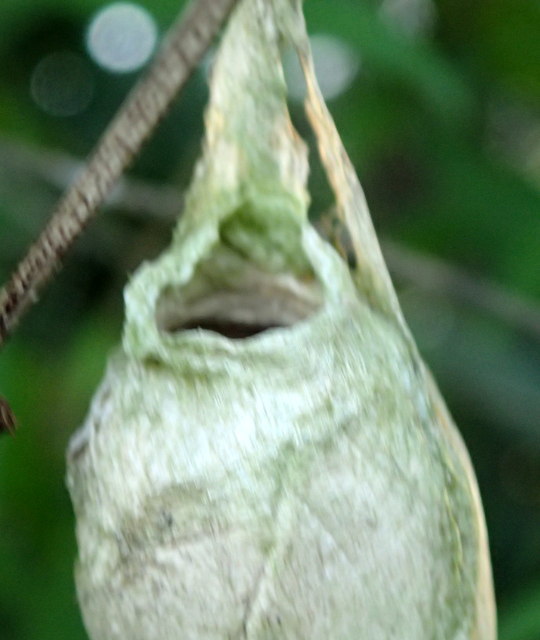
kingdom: Animalia
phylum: Arthropoda
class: Insecta
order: Lepidoptera
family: Saturniidae
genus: Antheraea
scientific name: Antheraea polyphemus
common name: Polyphemus moth
